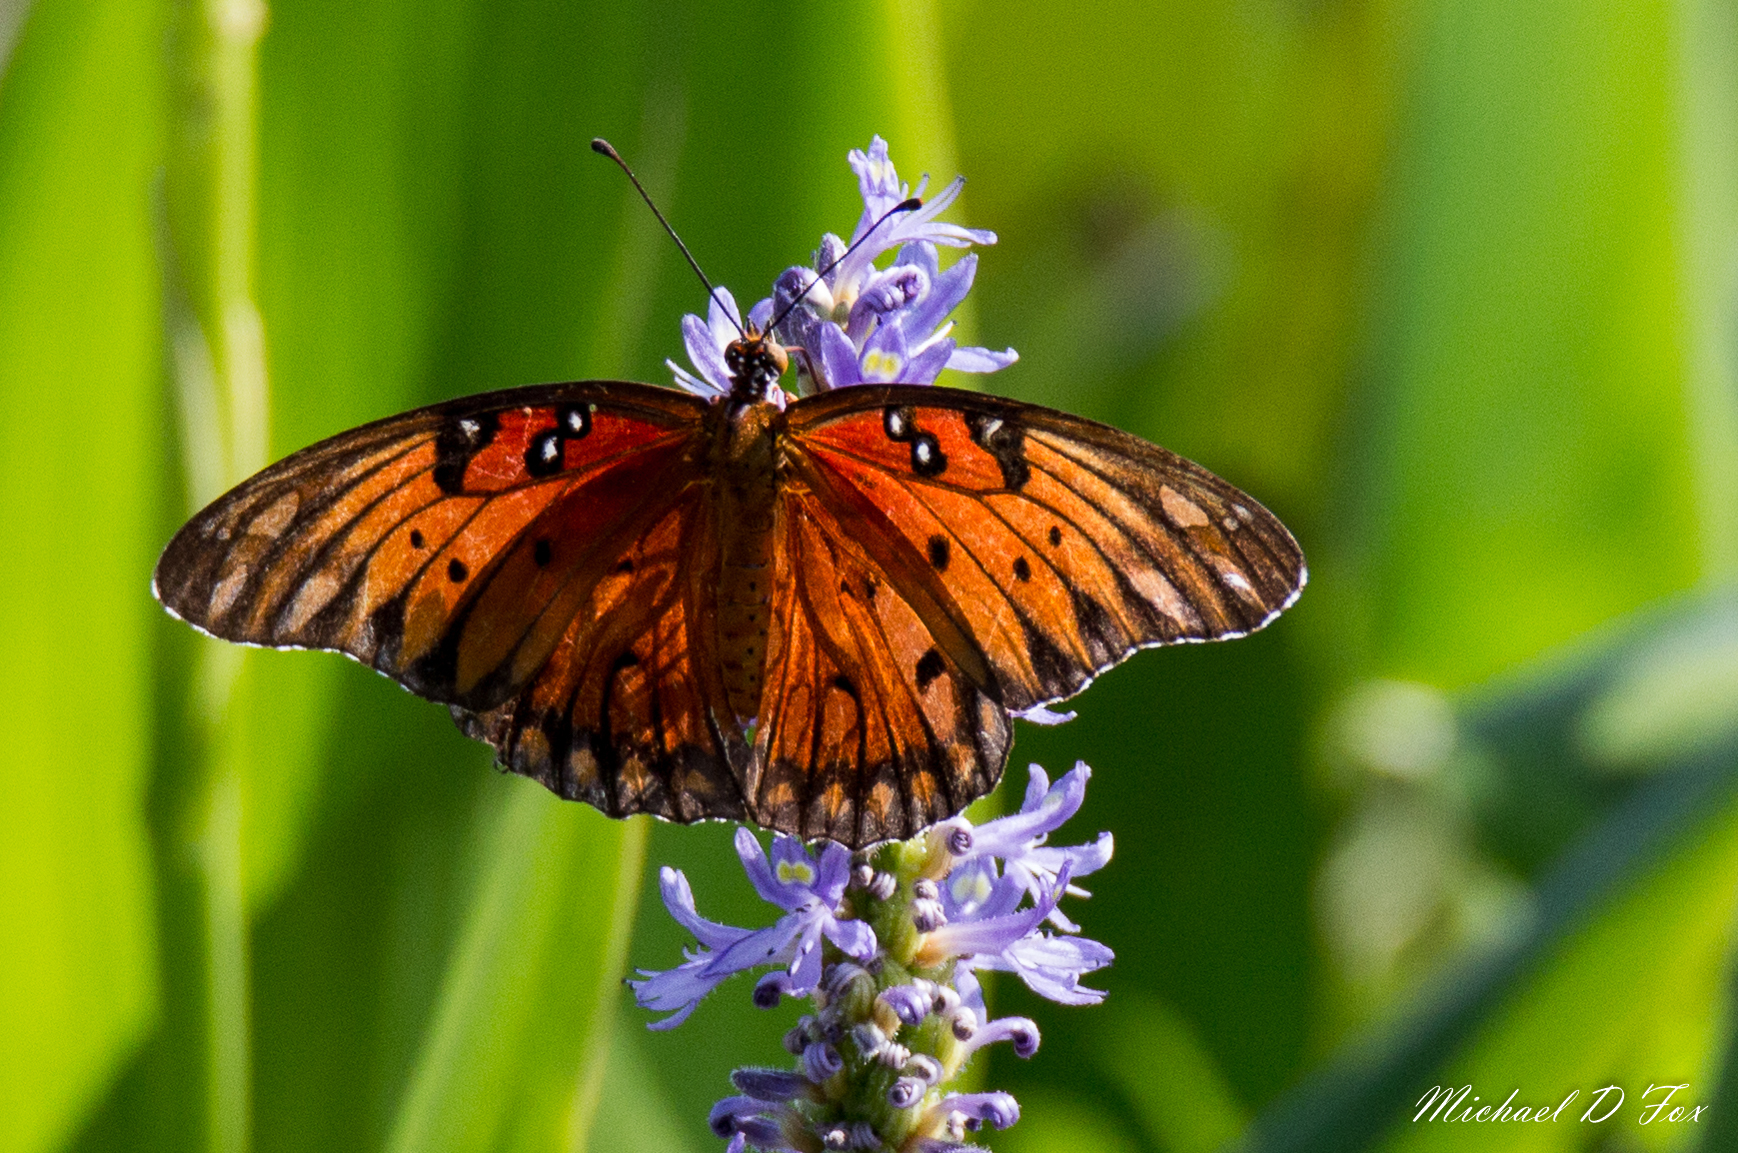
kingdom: Animalia
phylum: Arthropoda
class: Insecta
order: Lepidoptera
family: Nymphalidae
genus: Dione
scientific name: Dione vanillae
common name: Gulf fritillary
